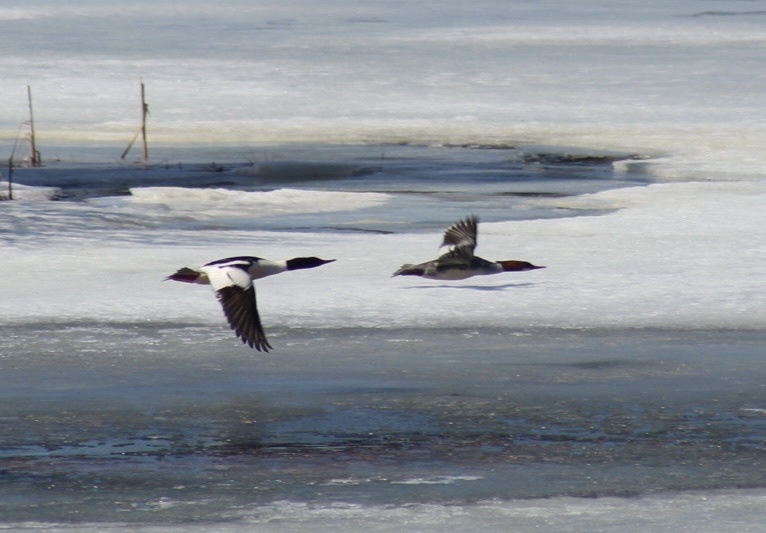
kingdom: Animalia
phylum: Chordata
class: Aves
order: Anseriformes
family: Anatidae
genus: Mergus
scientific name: Mergus merganser
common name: Common merganser
